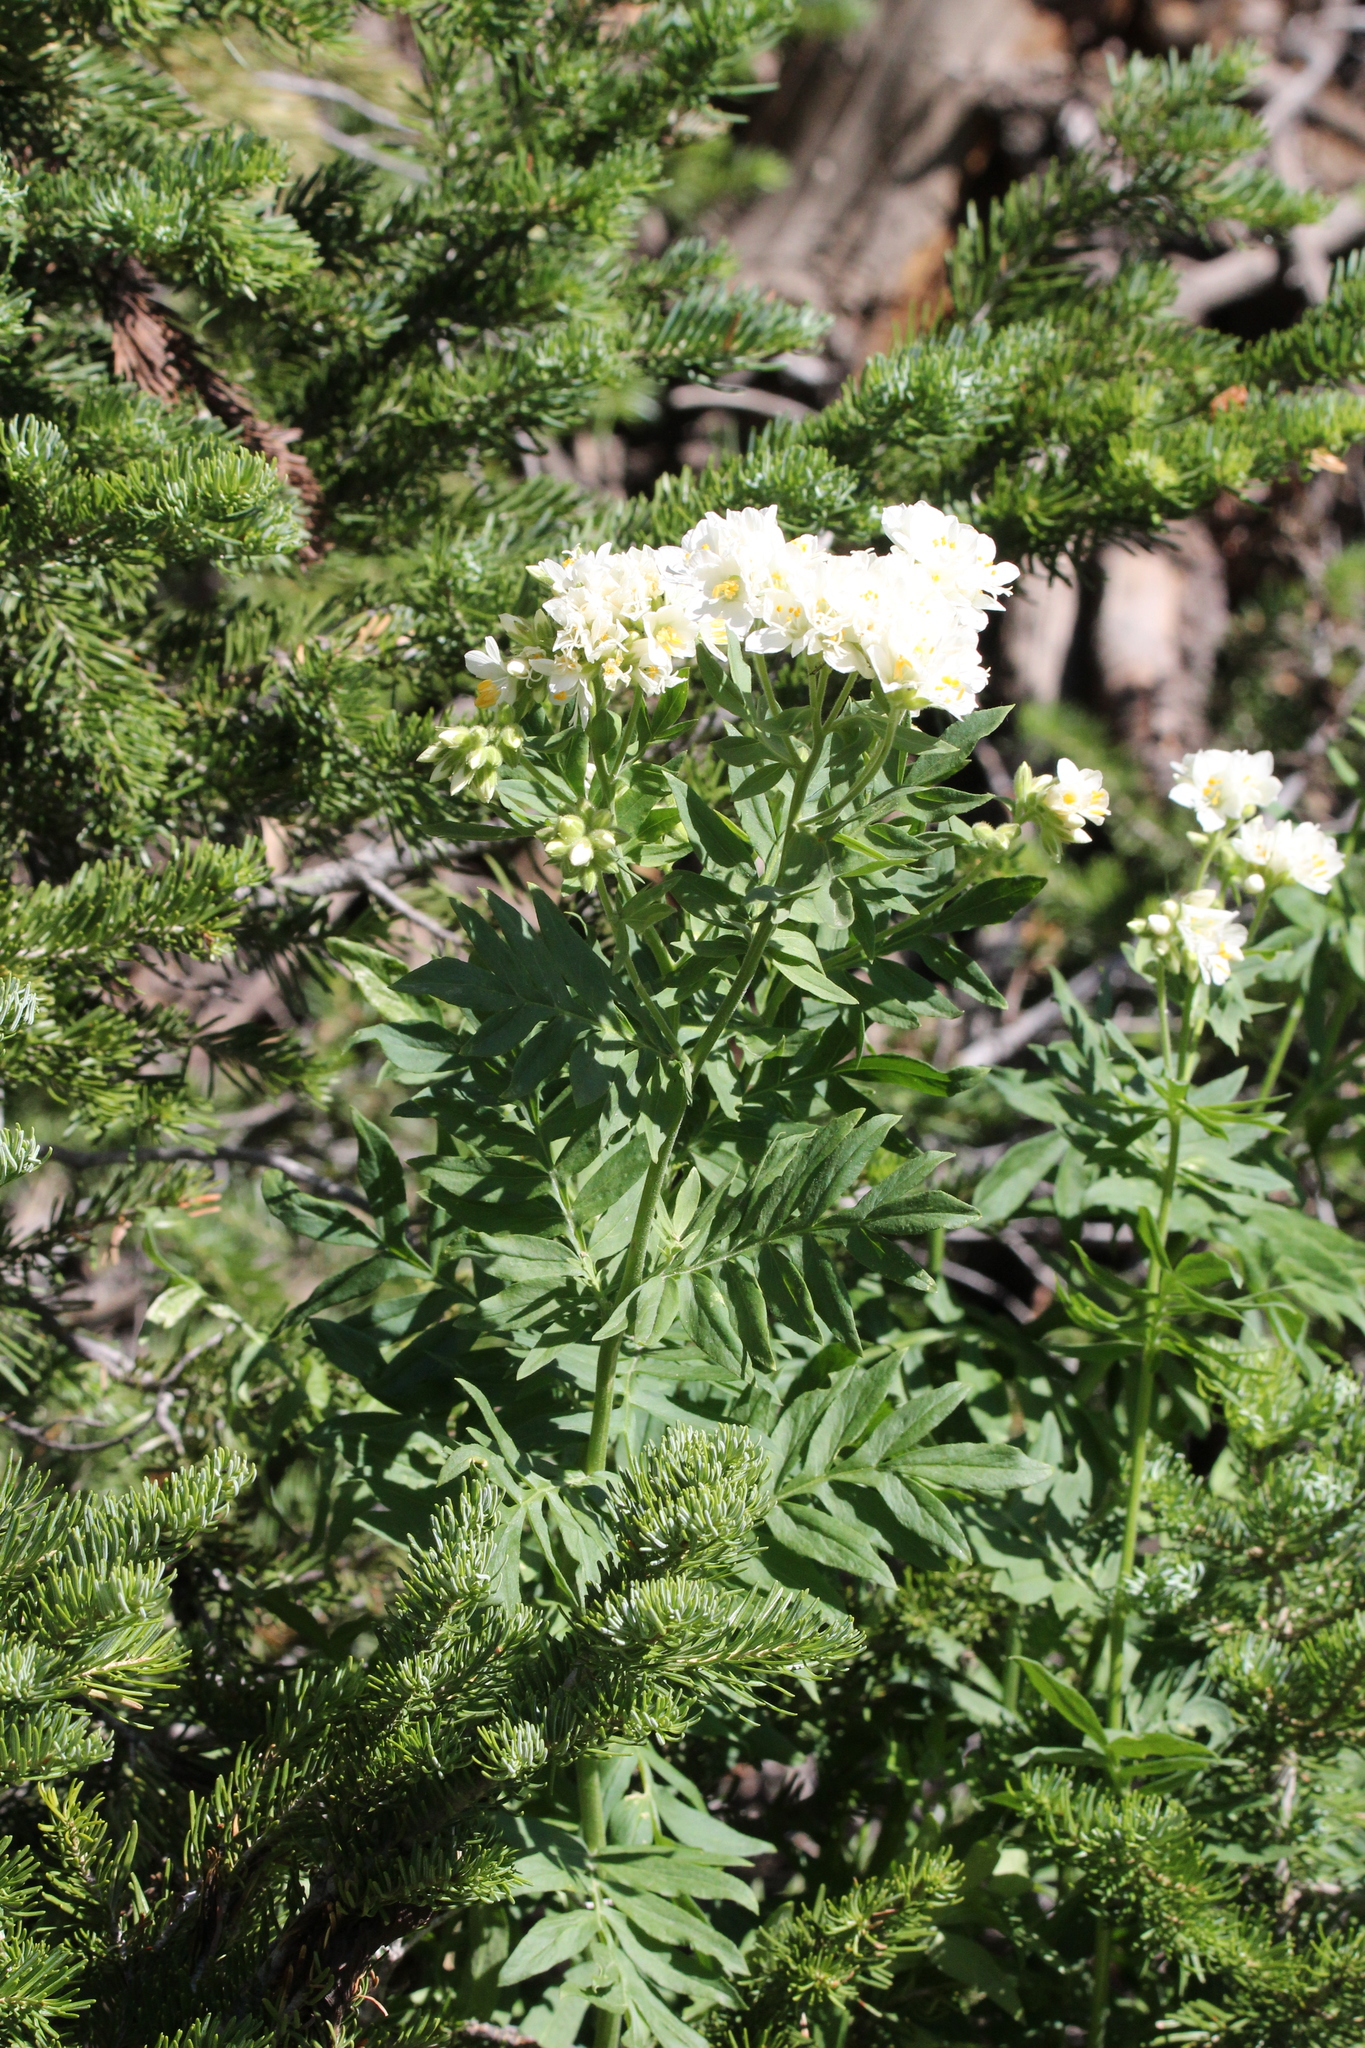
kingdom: Plantae
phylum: Tracheophyta
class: Magnoliopsida
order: Ericales
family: Polemoniaceae
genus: Polemonium
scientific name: Polemonium foliosissimum
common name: Leafy jacob's-ladder
